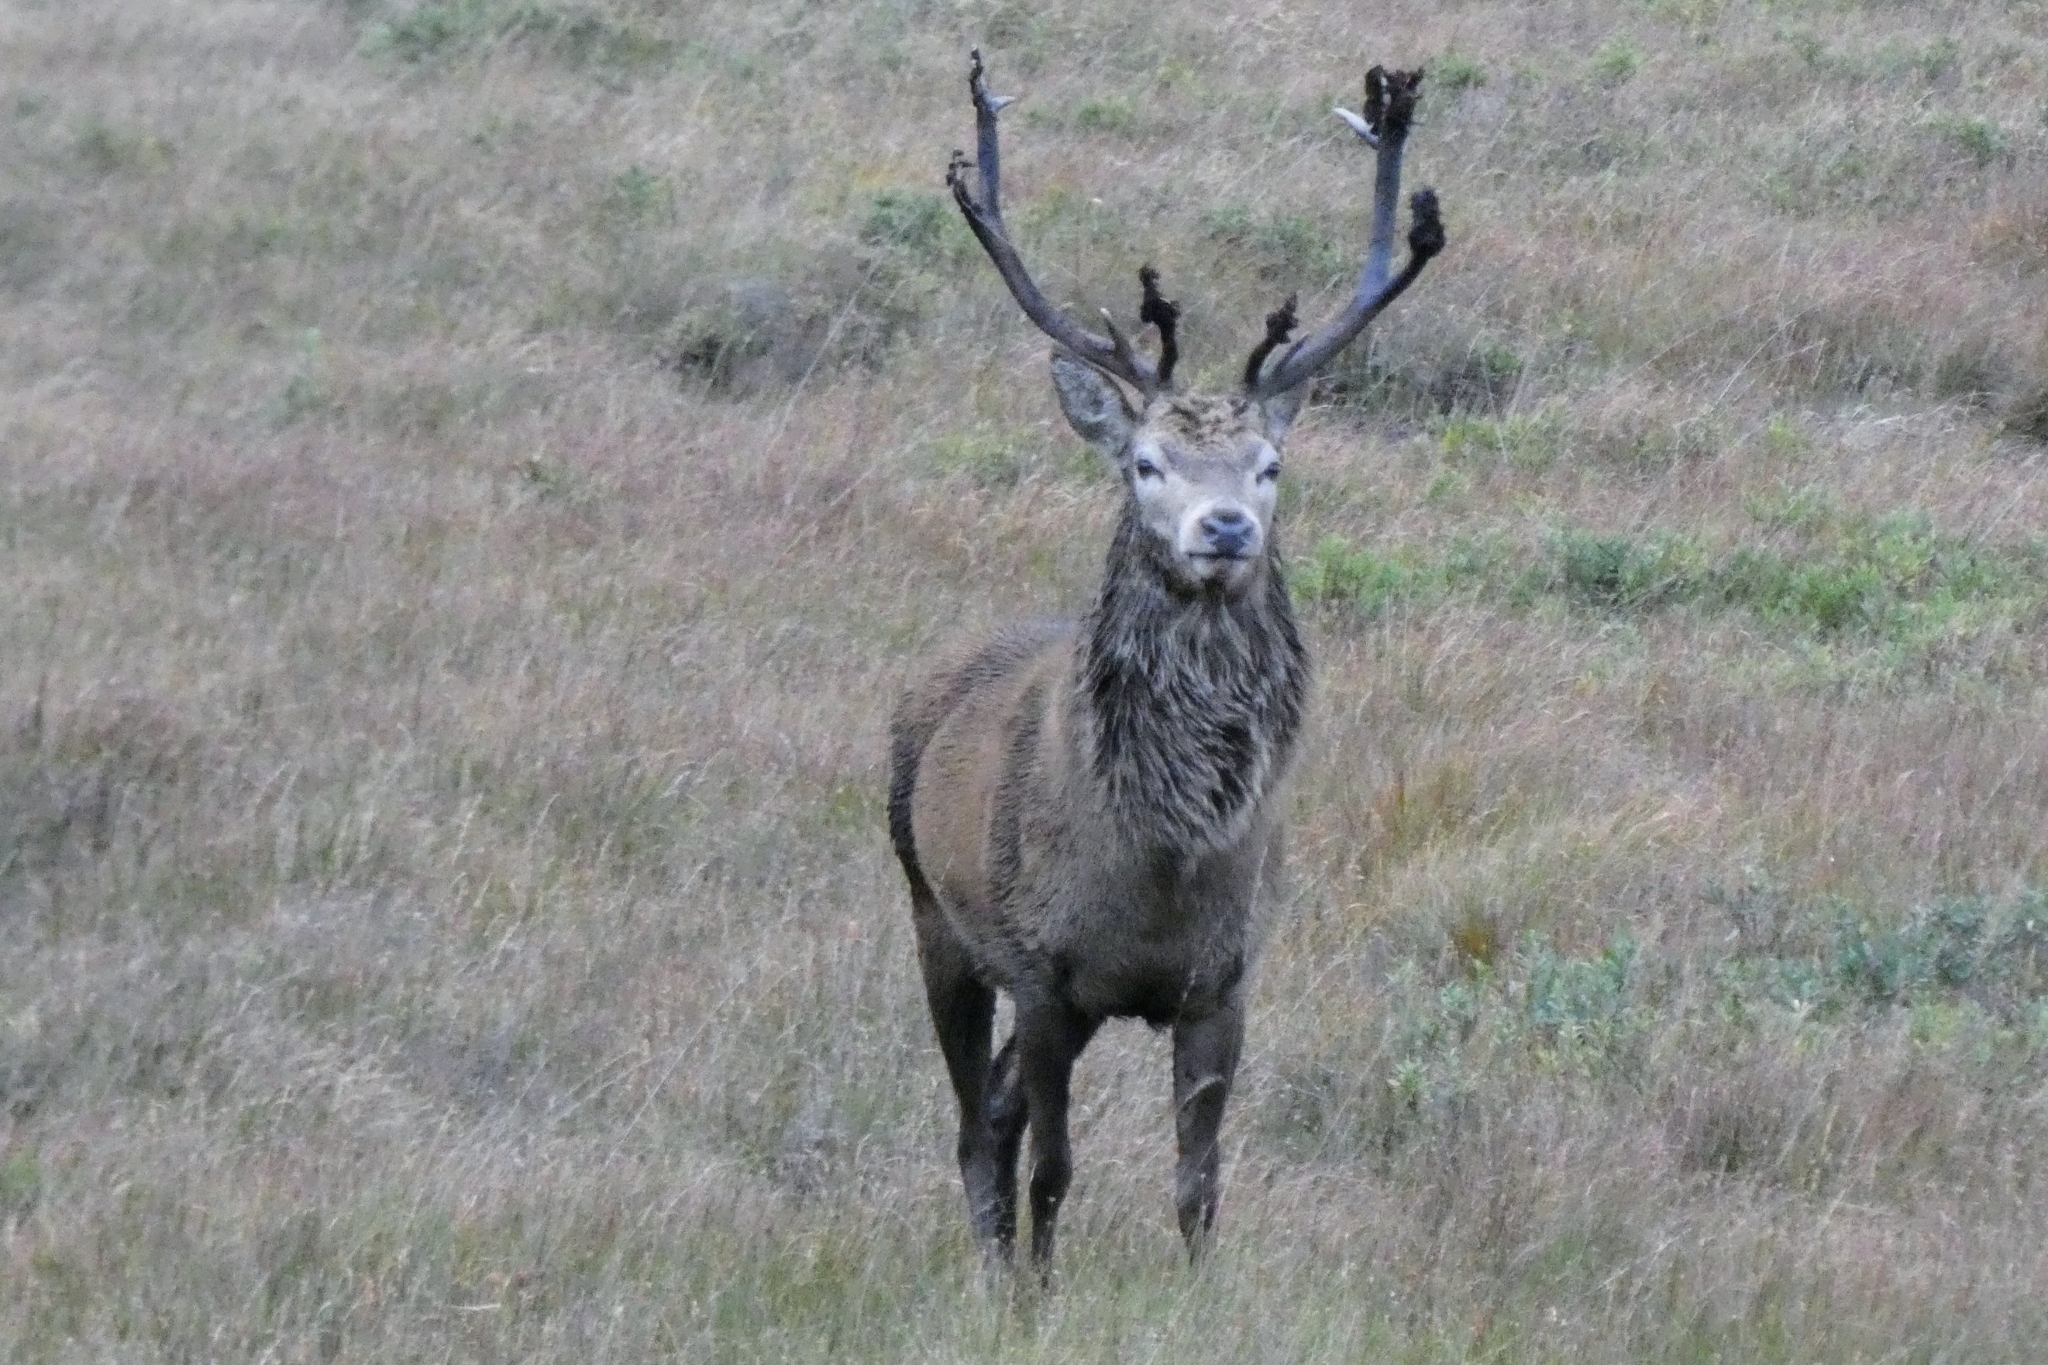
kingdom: Animalia
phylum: Chordata
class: Mammalia
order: Artiodactyla
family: Cervidae
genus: Cervus
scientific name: Cervus elaphus
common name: Red deer
